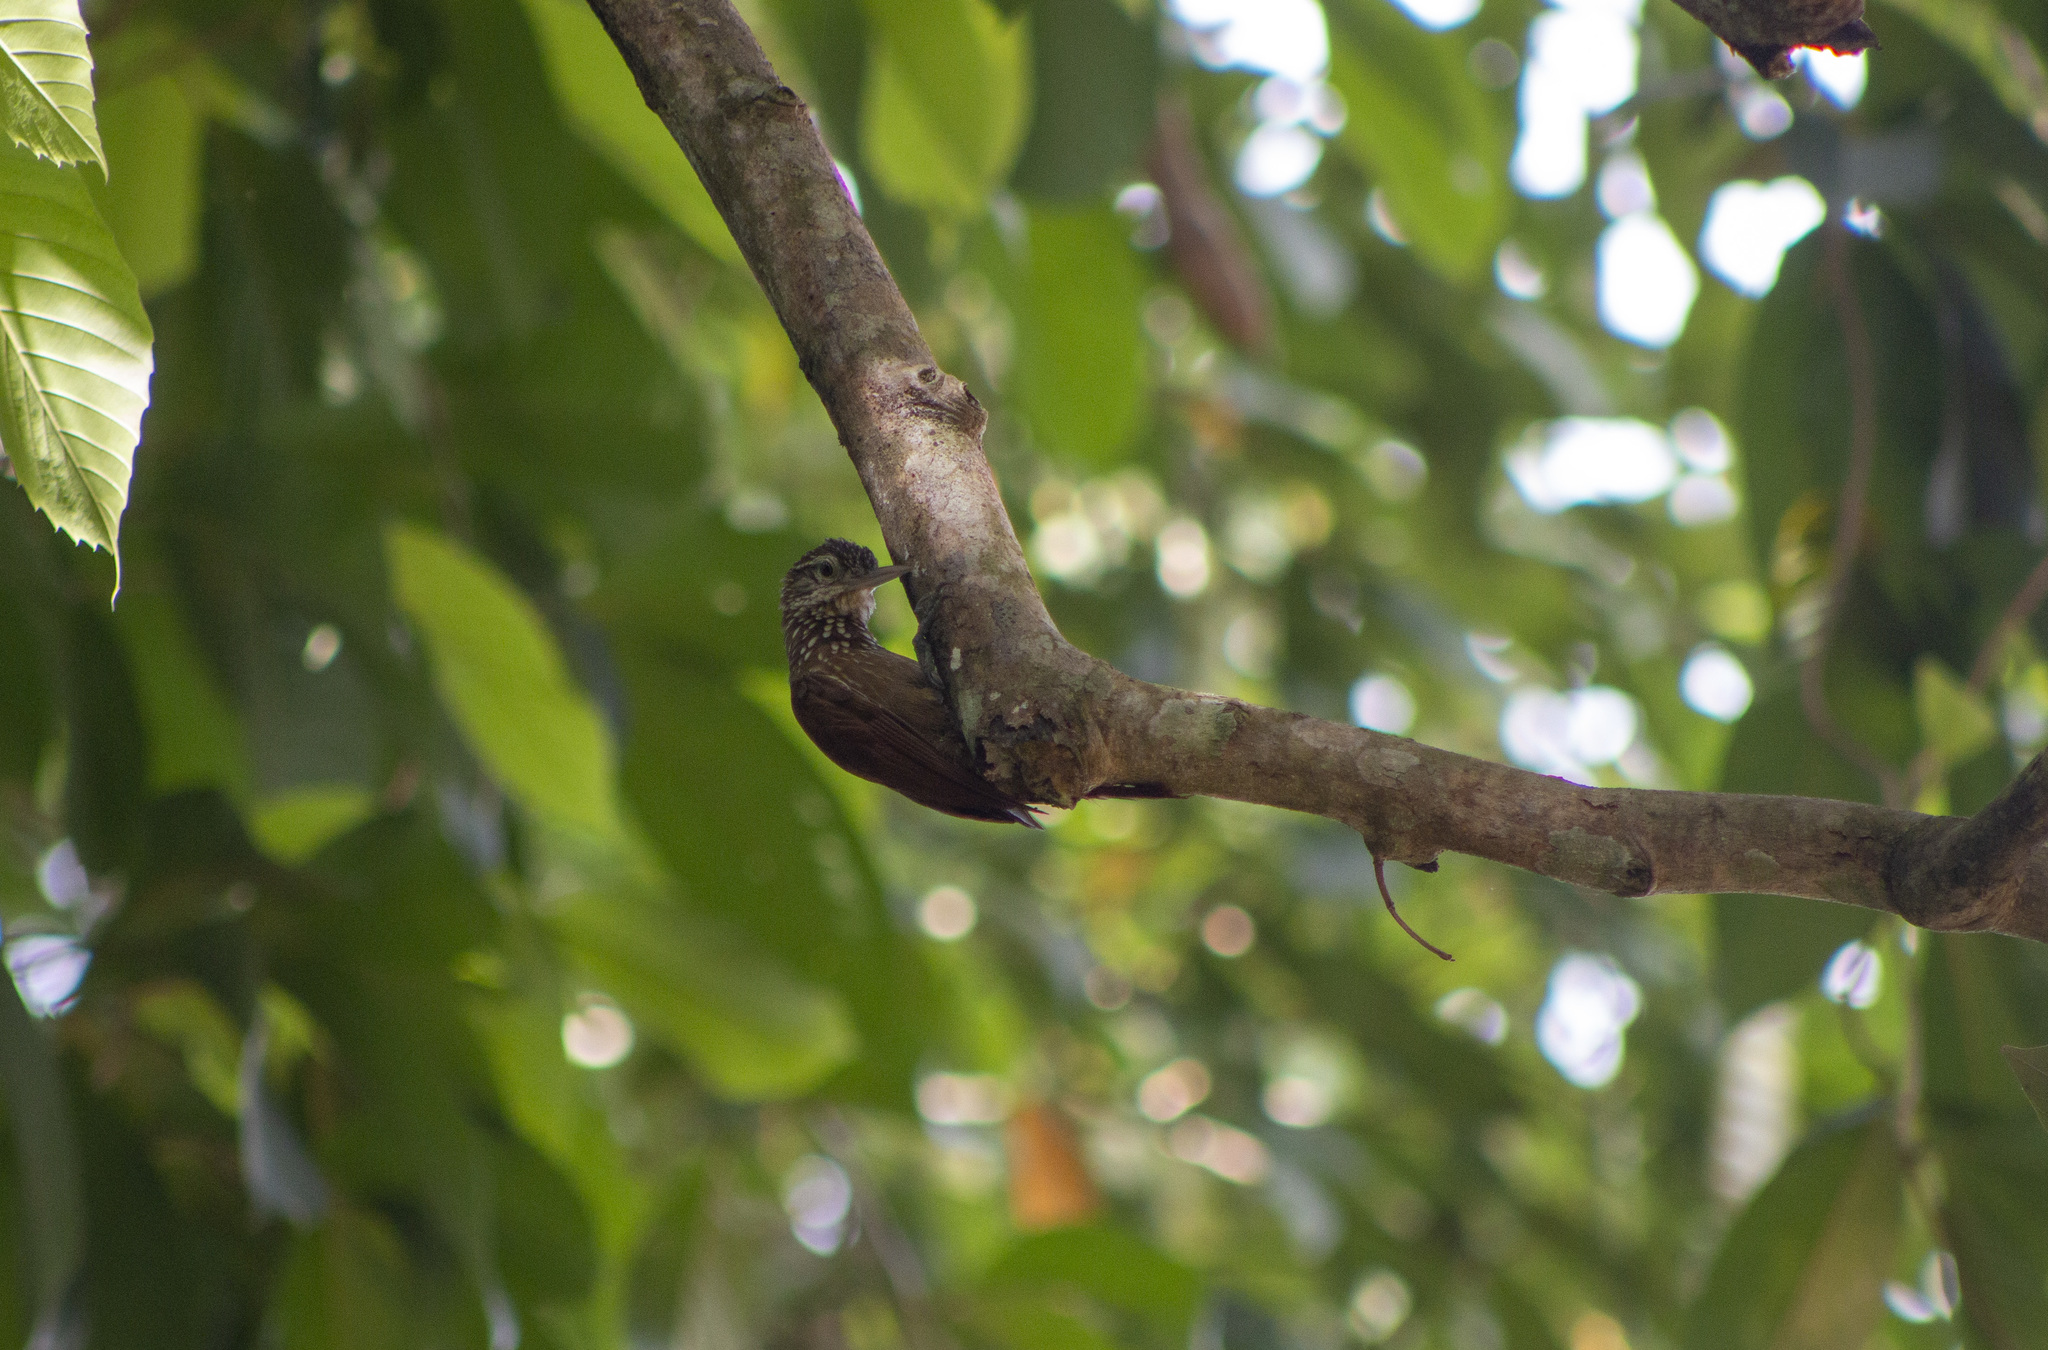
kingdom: Animalia
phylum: Chordata
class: Aves
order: Passeriformes
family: Furnariidae
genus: Xiphorhynchus
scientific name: Xiphorhynchus picus
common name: Straight-billed woodcreeper
